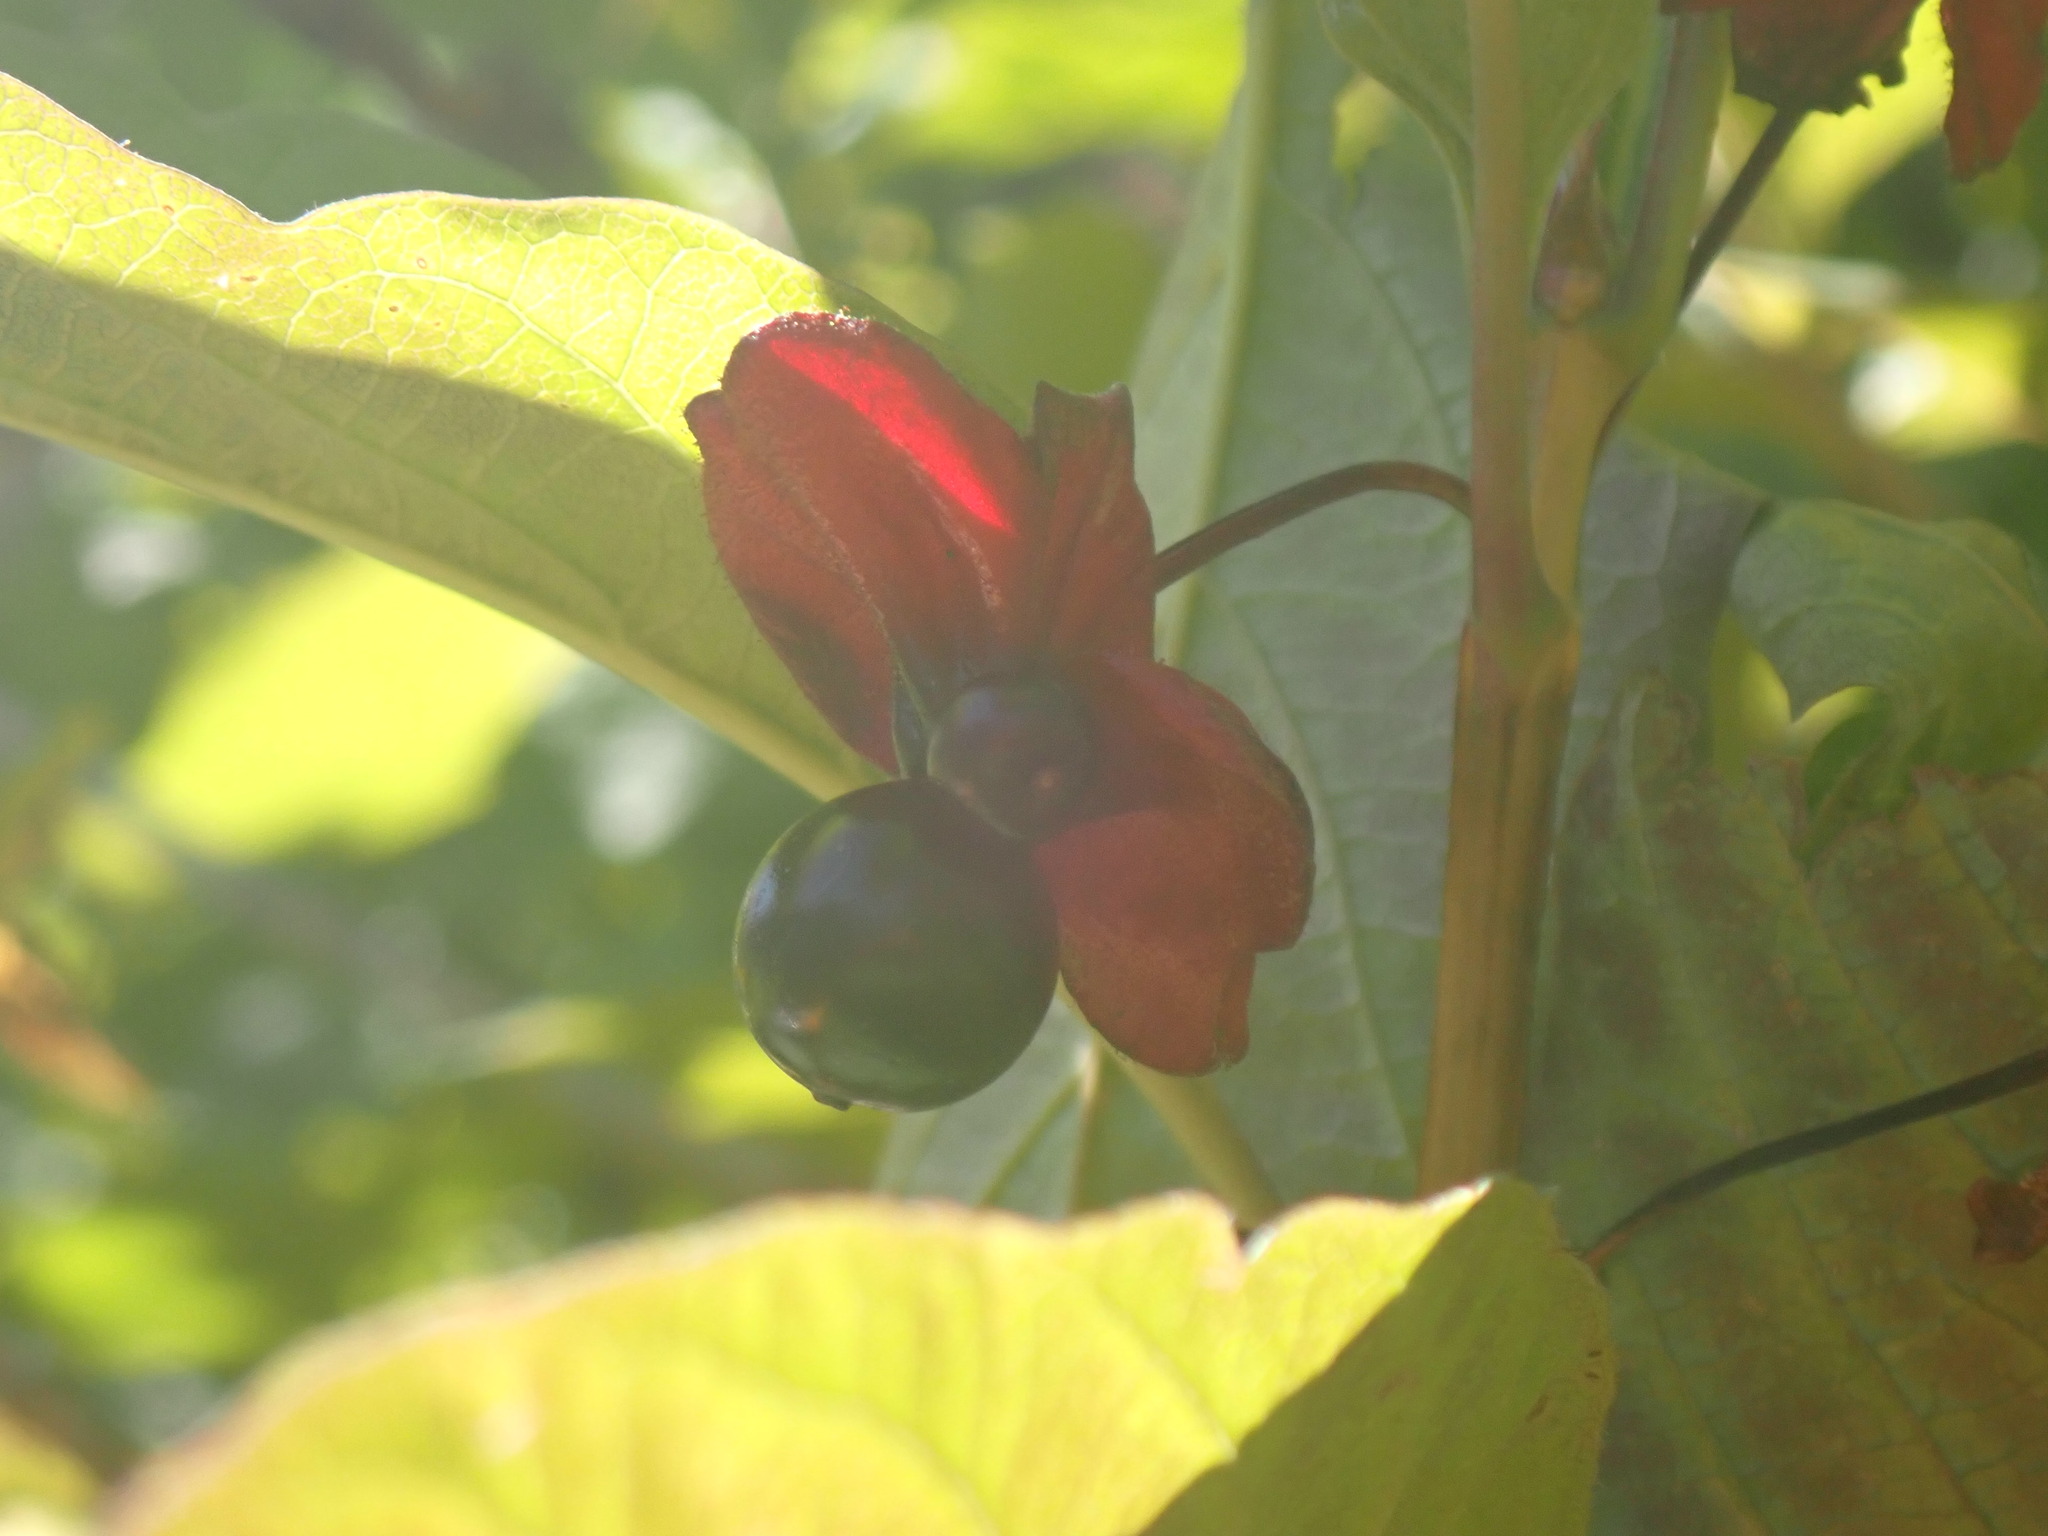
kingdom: Plantae
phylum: Tracheophyta
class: Magnoliopsida
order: Dipsacales
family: Caprifoliaceae
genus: Lonicera
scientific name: Lonicera involucrata
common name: Californian honeysuckle
